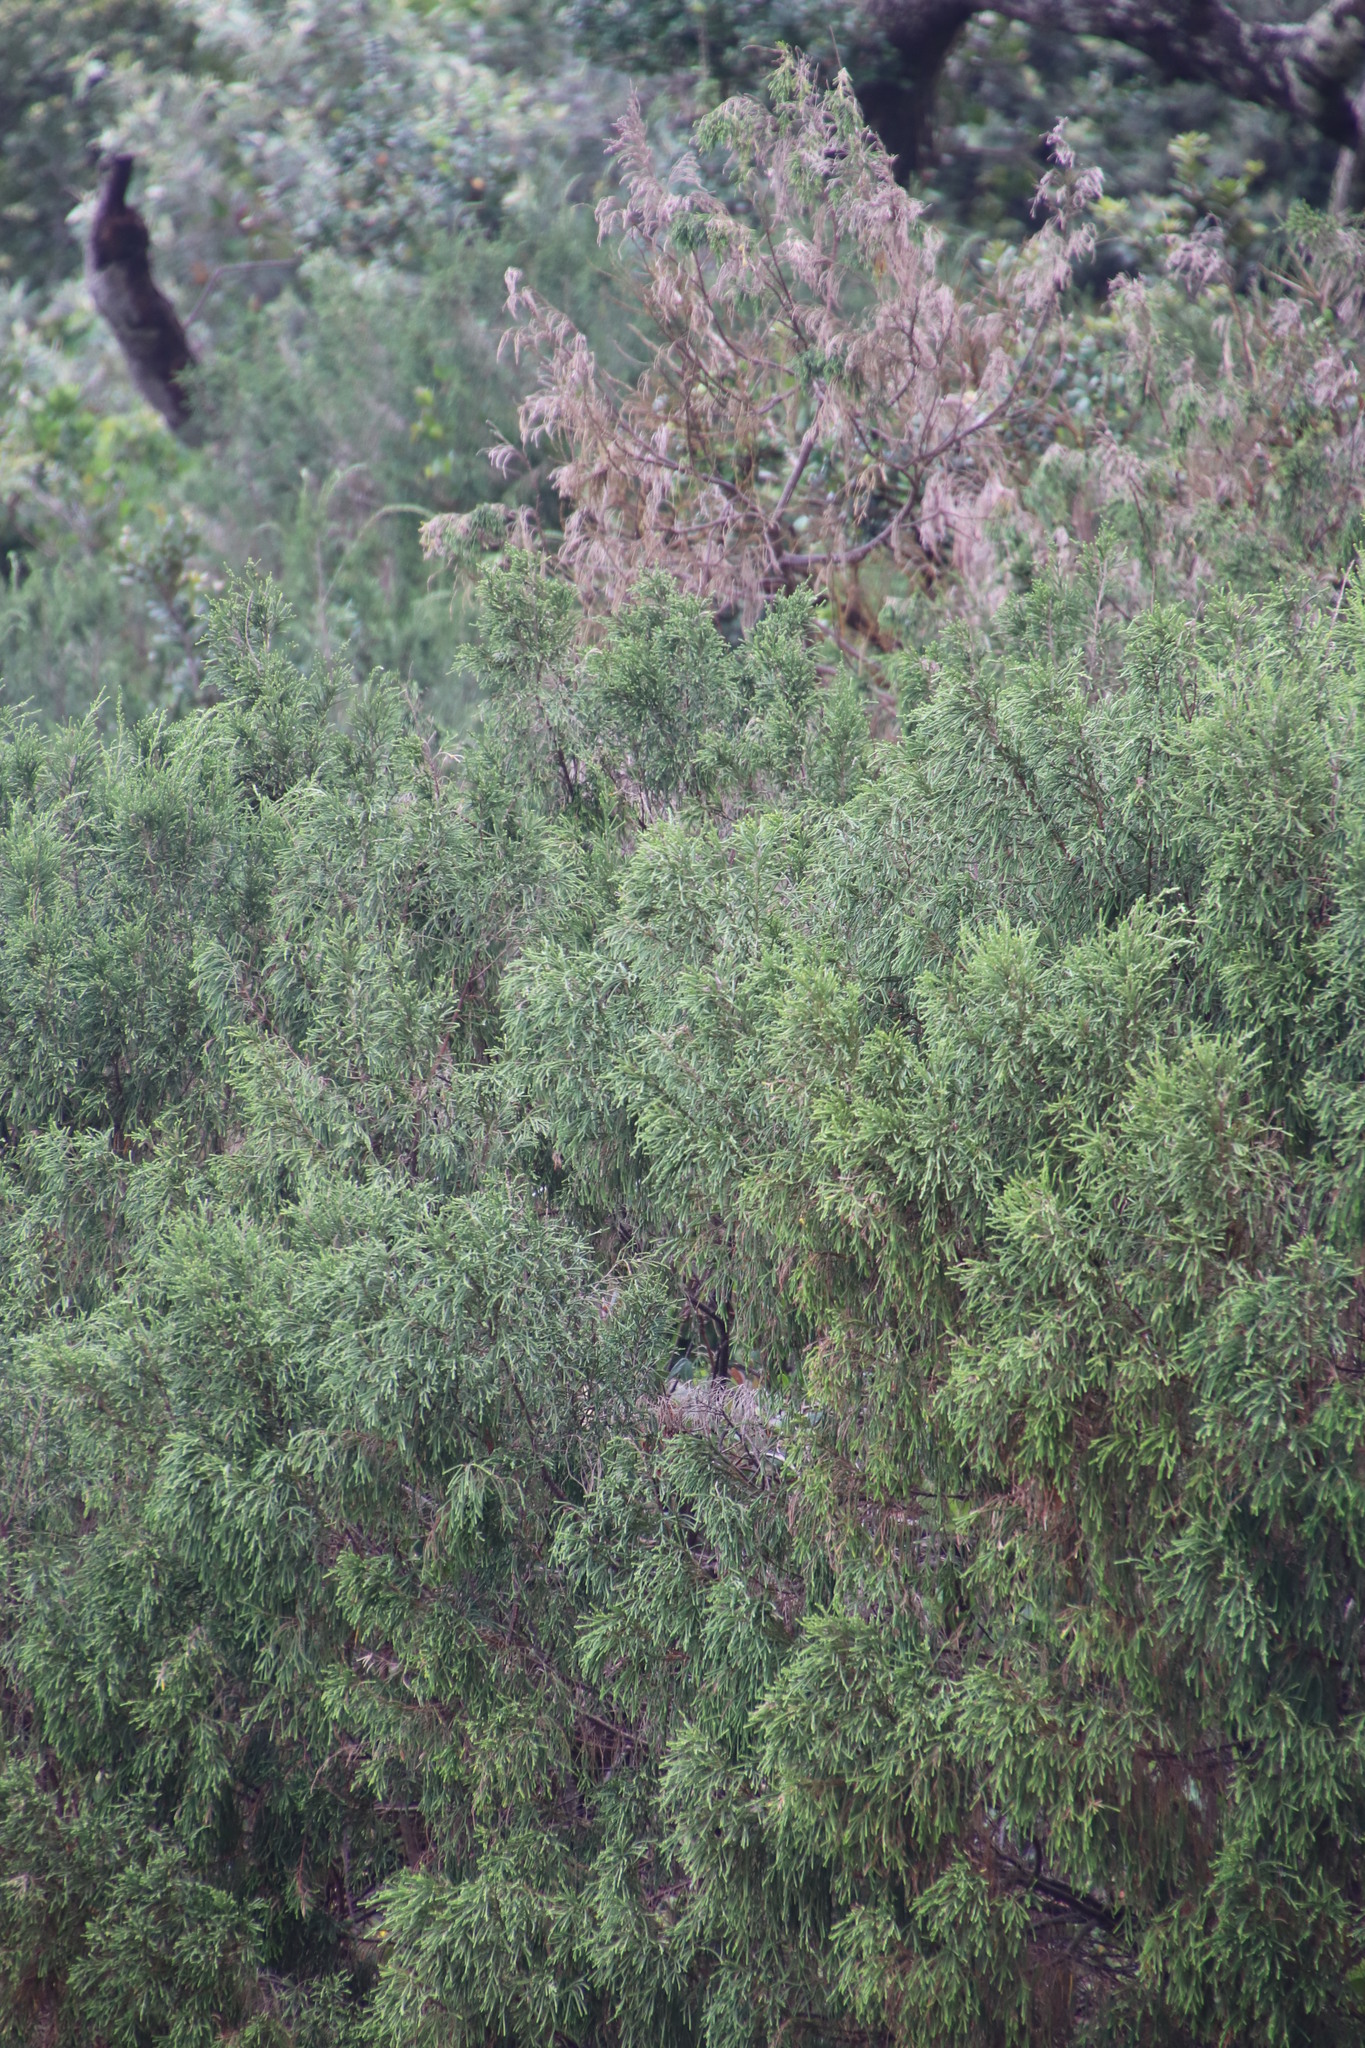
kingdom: Plantae
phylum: Tracheophyta
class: Magnoliopsida
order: Malvales
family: Thymelaeaceae
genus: Passerina
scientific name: Passerina rigida
